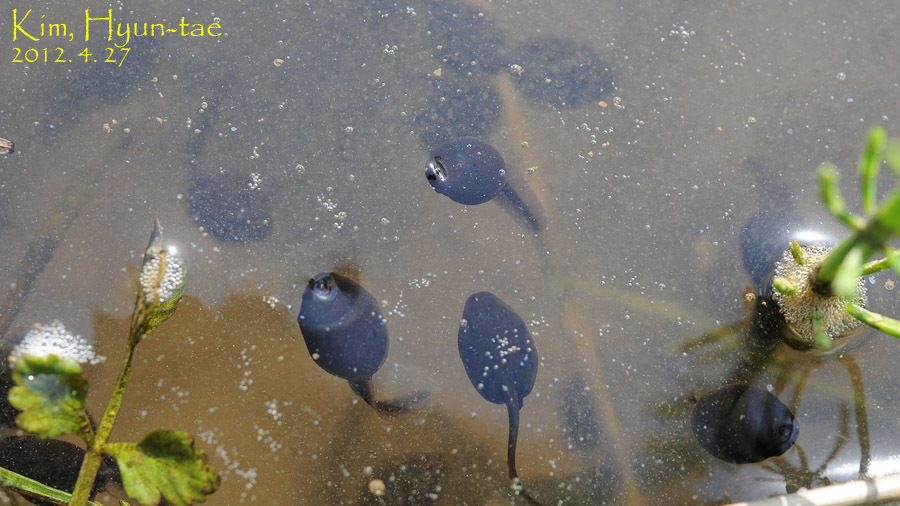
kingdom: Animalia
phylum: Chordata
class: Amphibia
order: Anura
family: Bufonidae
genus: Bufo
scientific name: Bufo gargarizans
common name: Asiatic toad
